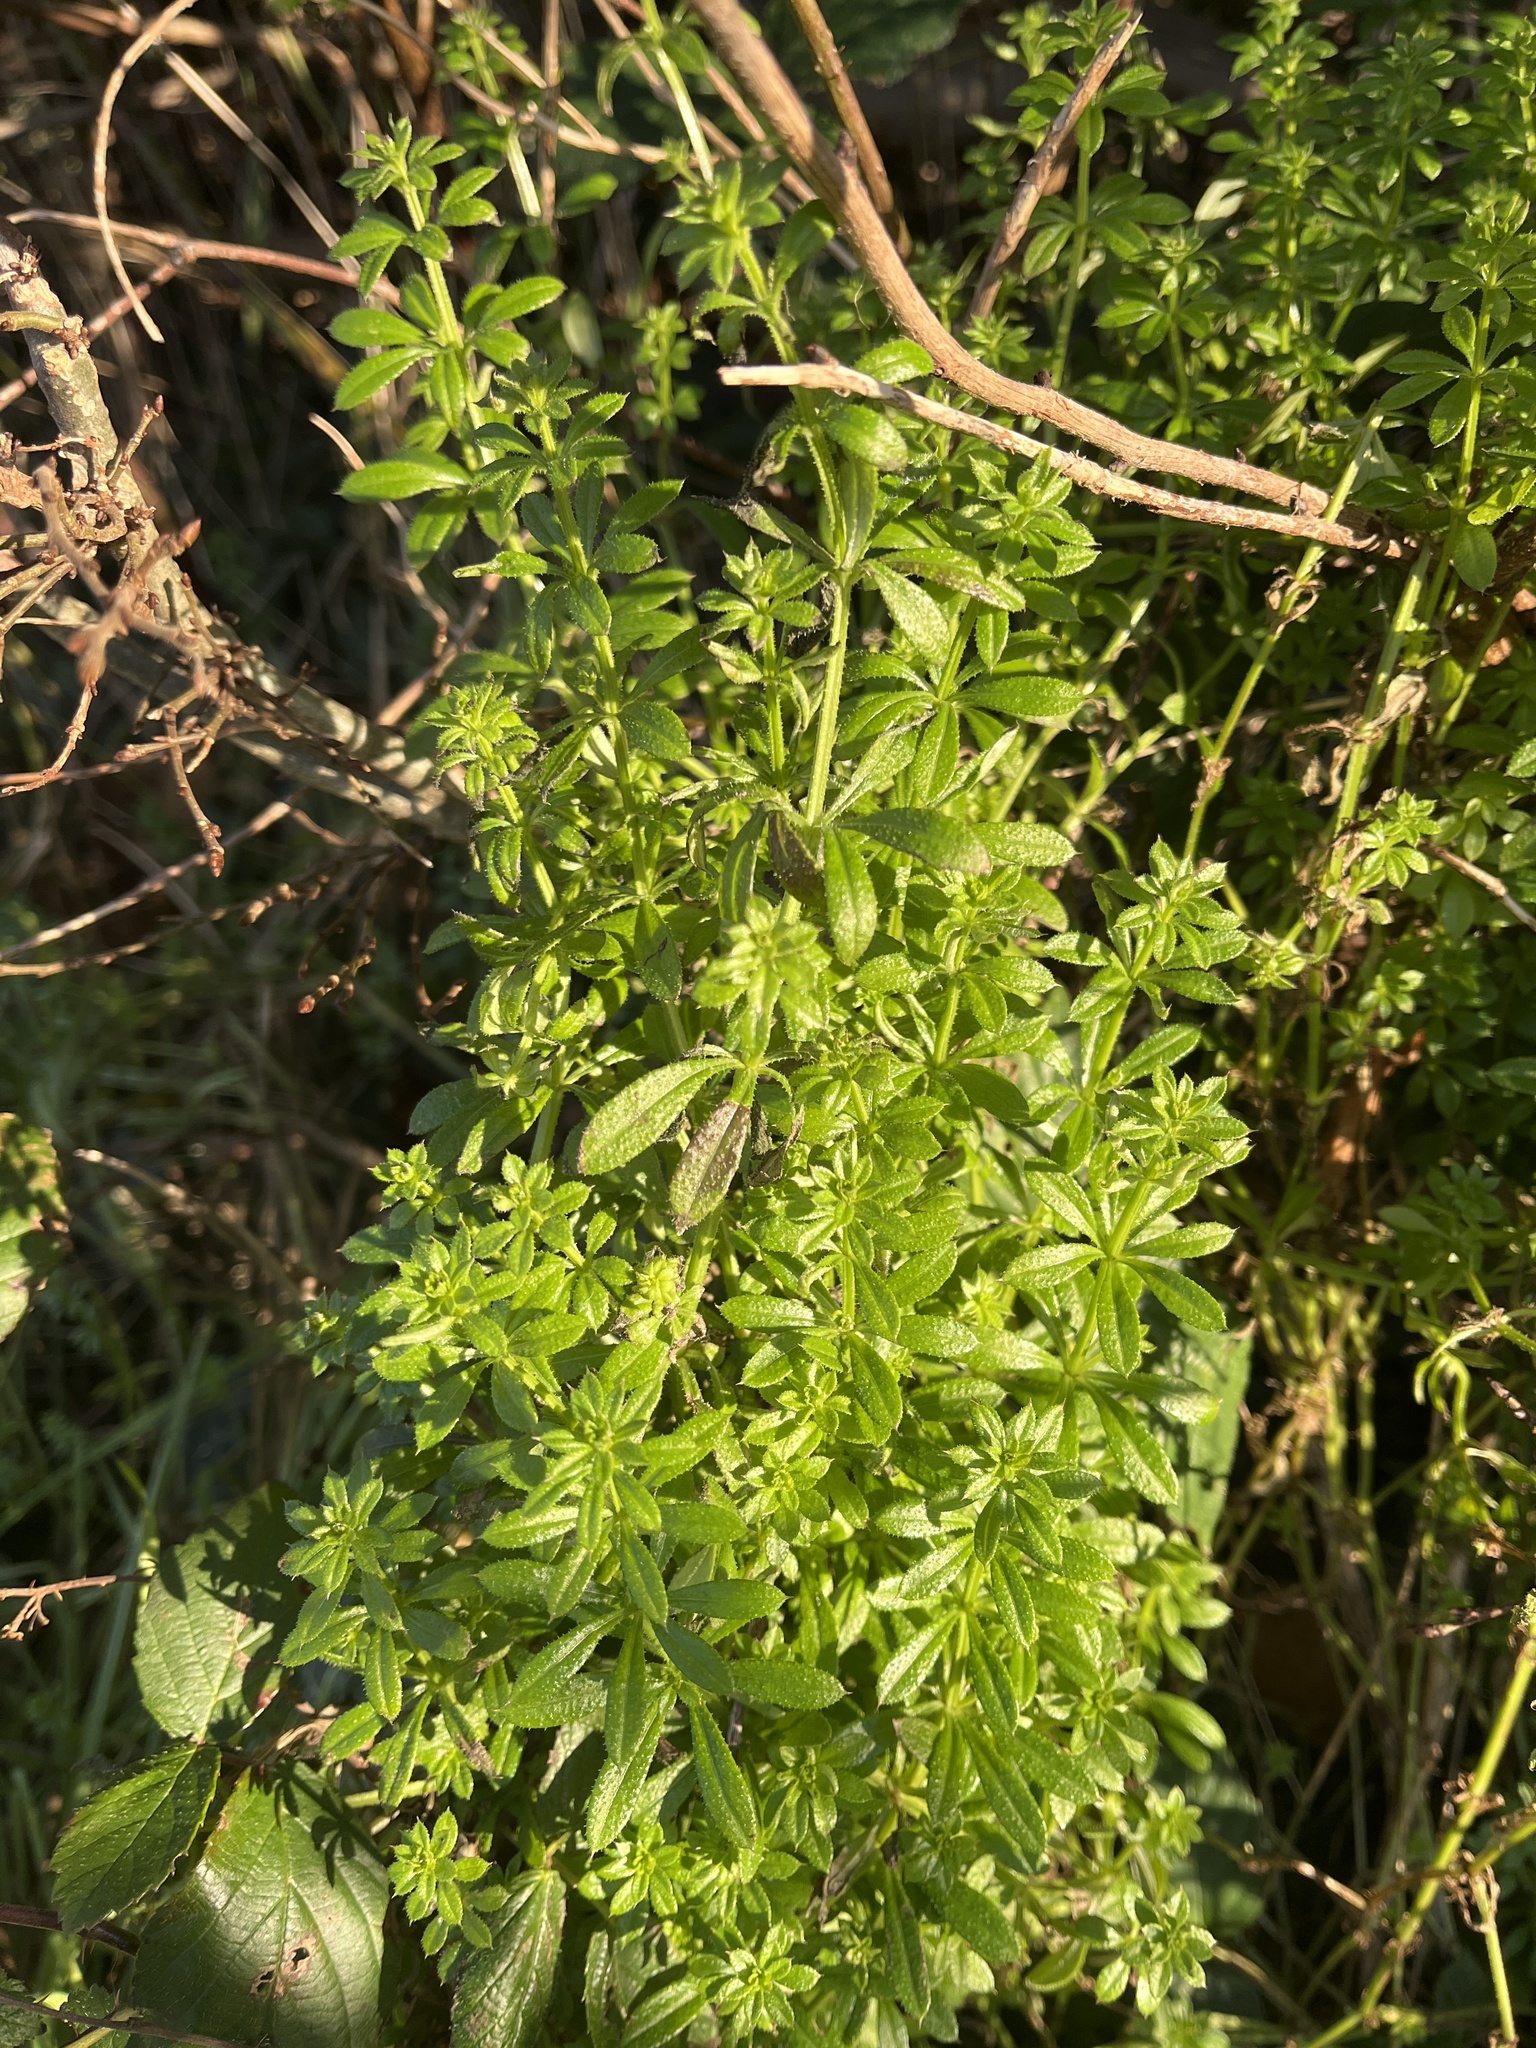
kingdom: Plantae
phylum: Tracheophyta
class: Magnoliopsida
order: Gentianales
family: Rubiaceae
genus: Galium
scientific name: Galium aparine
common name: Cleavers
